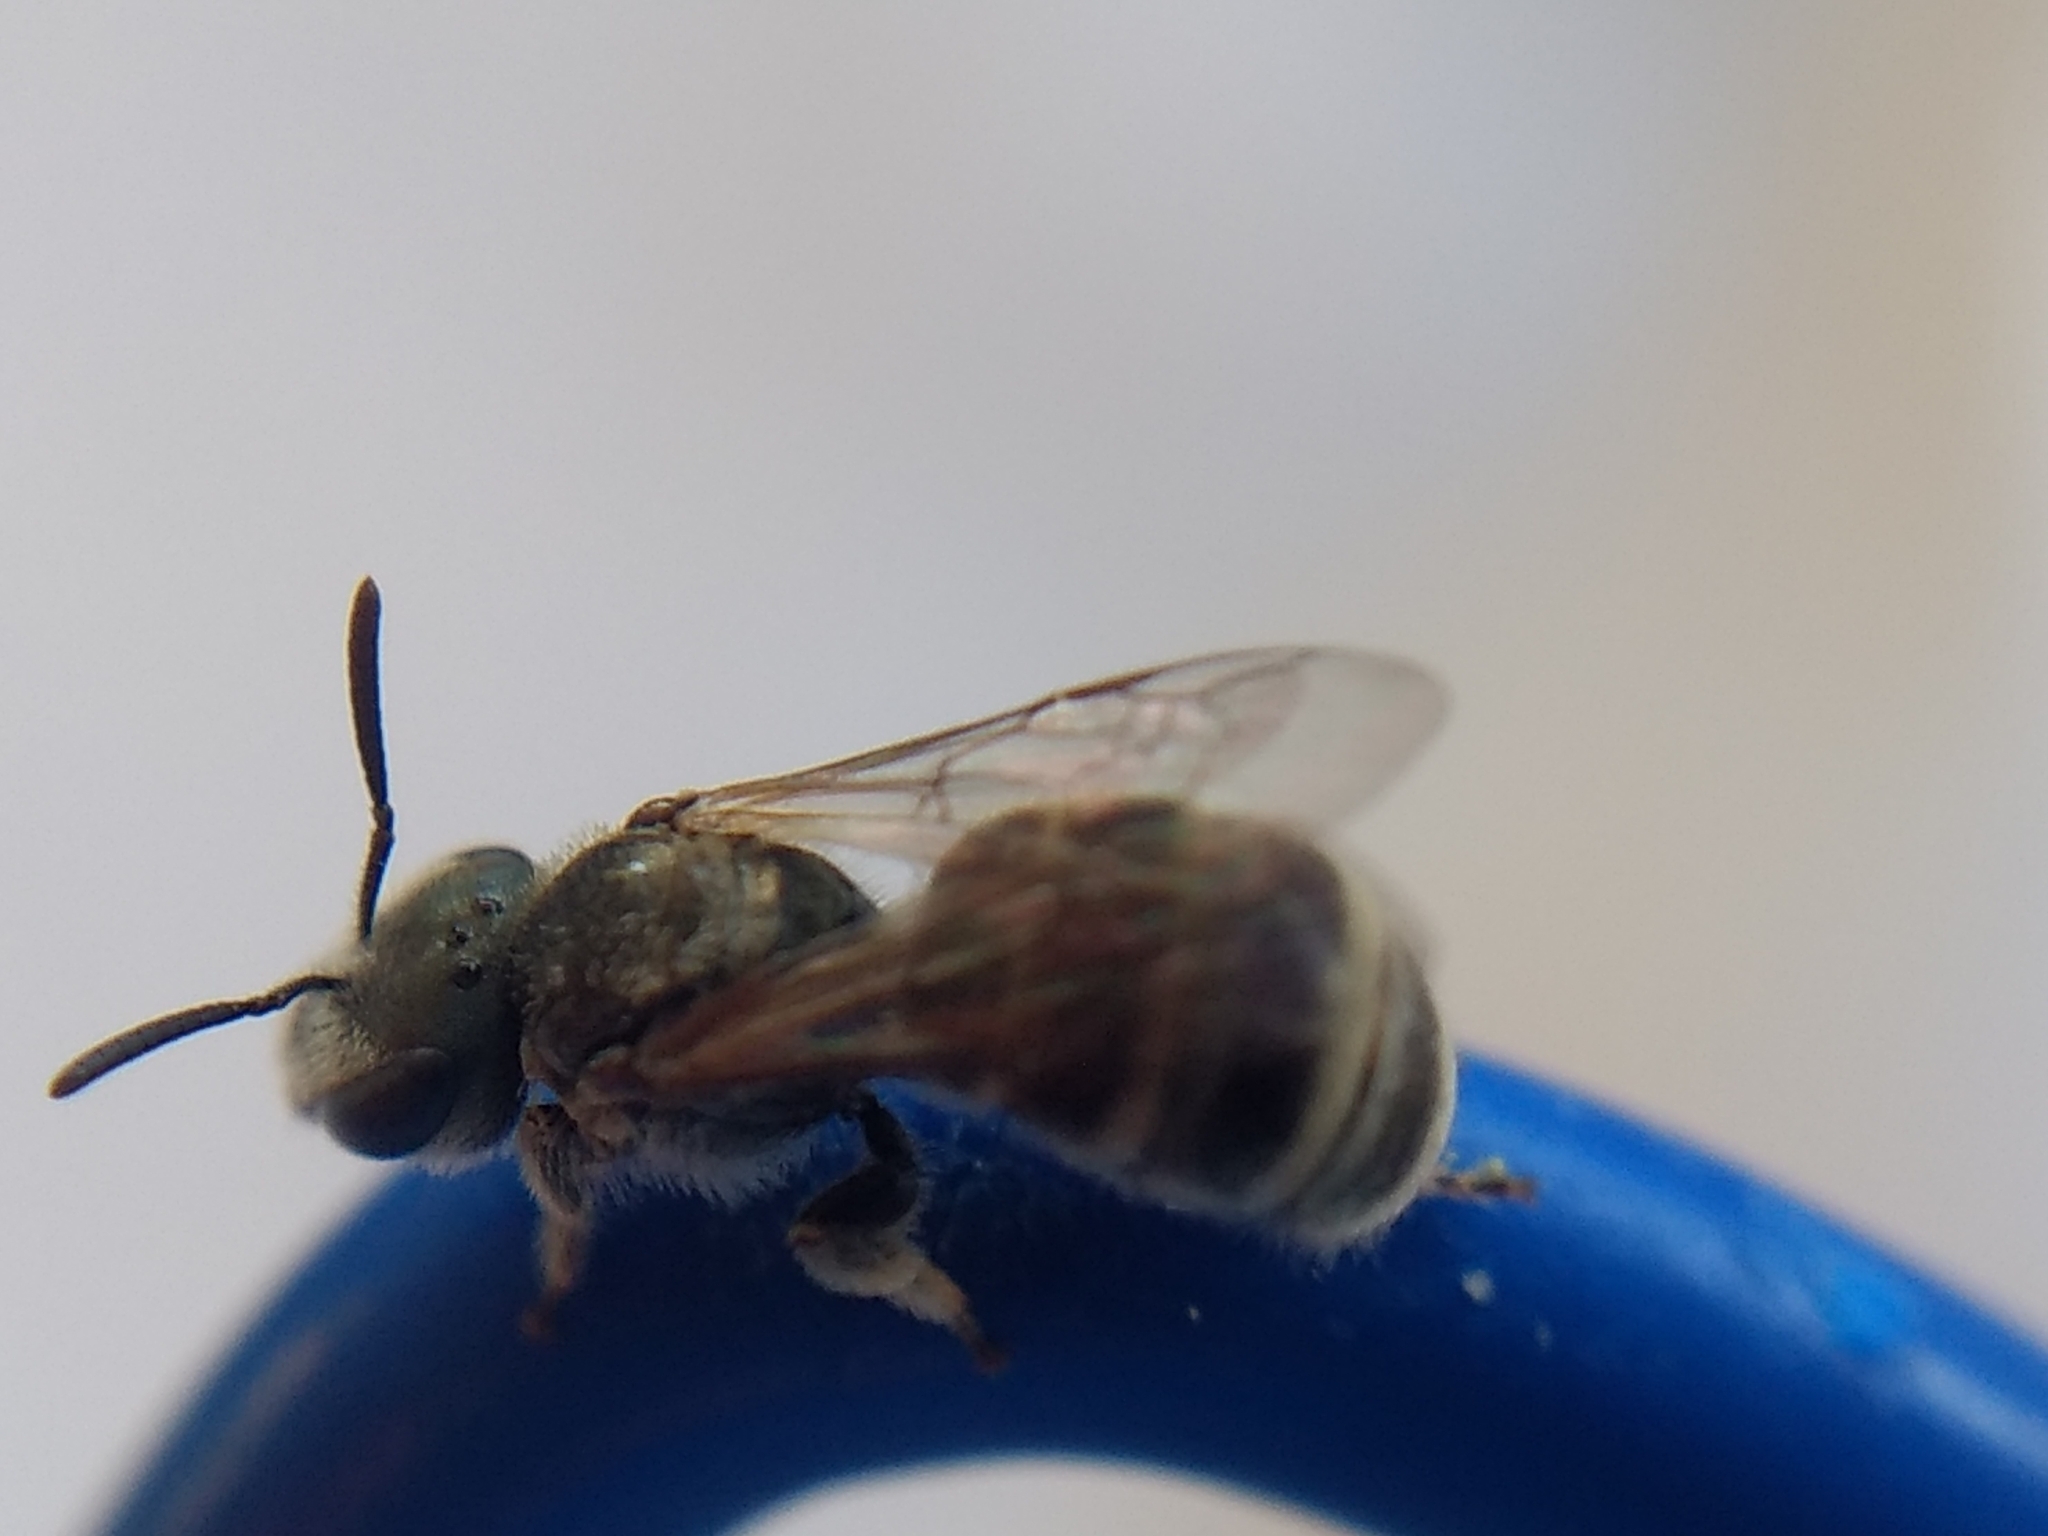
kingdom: Animalia
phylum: Arthropoda
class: Insecta
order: Hymenoptera
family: Halictidae
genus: Halictus
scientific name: Halictus tripartitus
